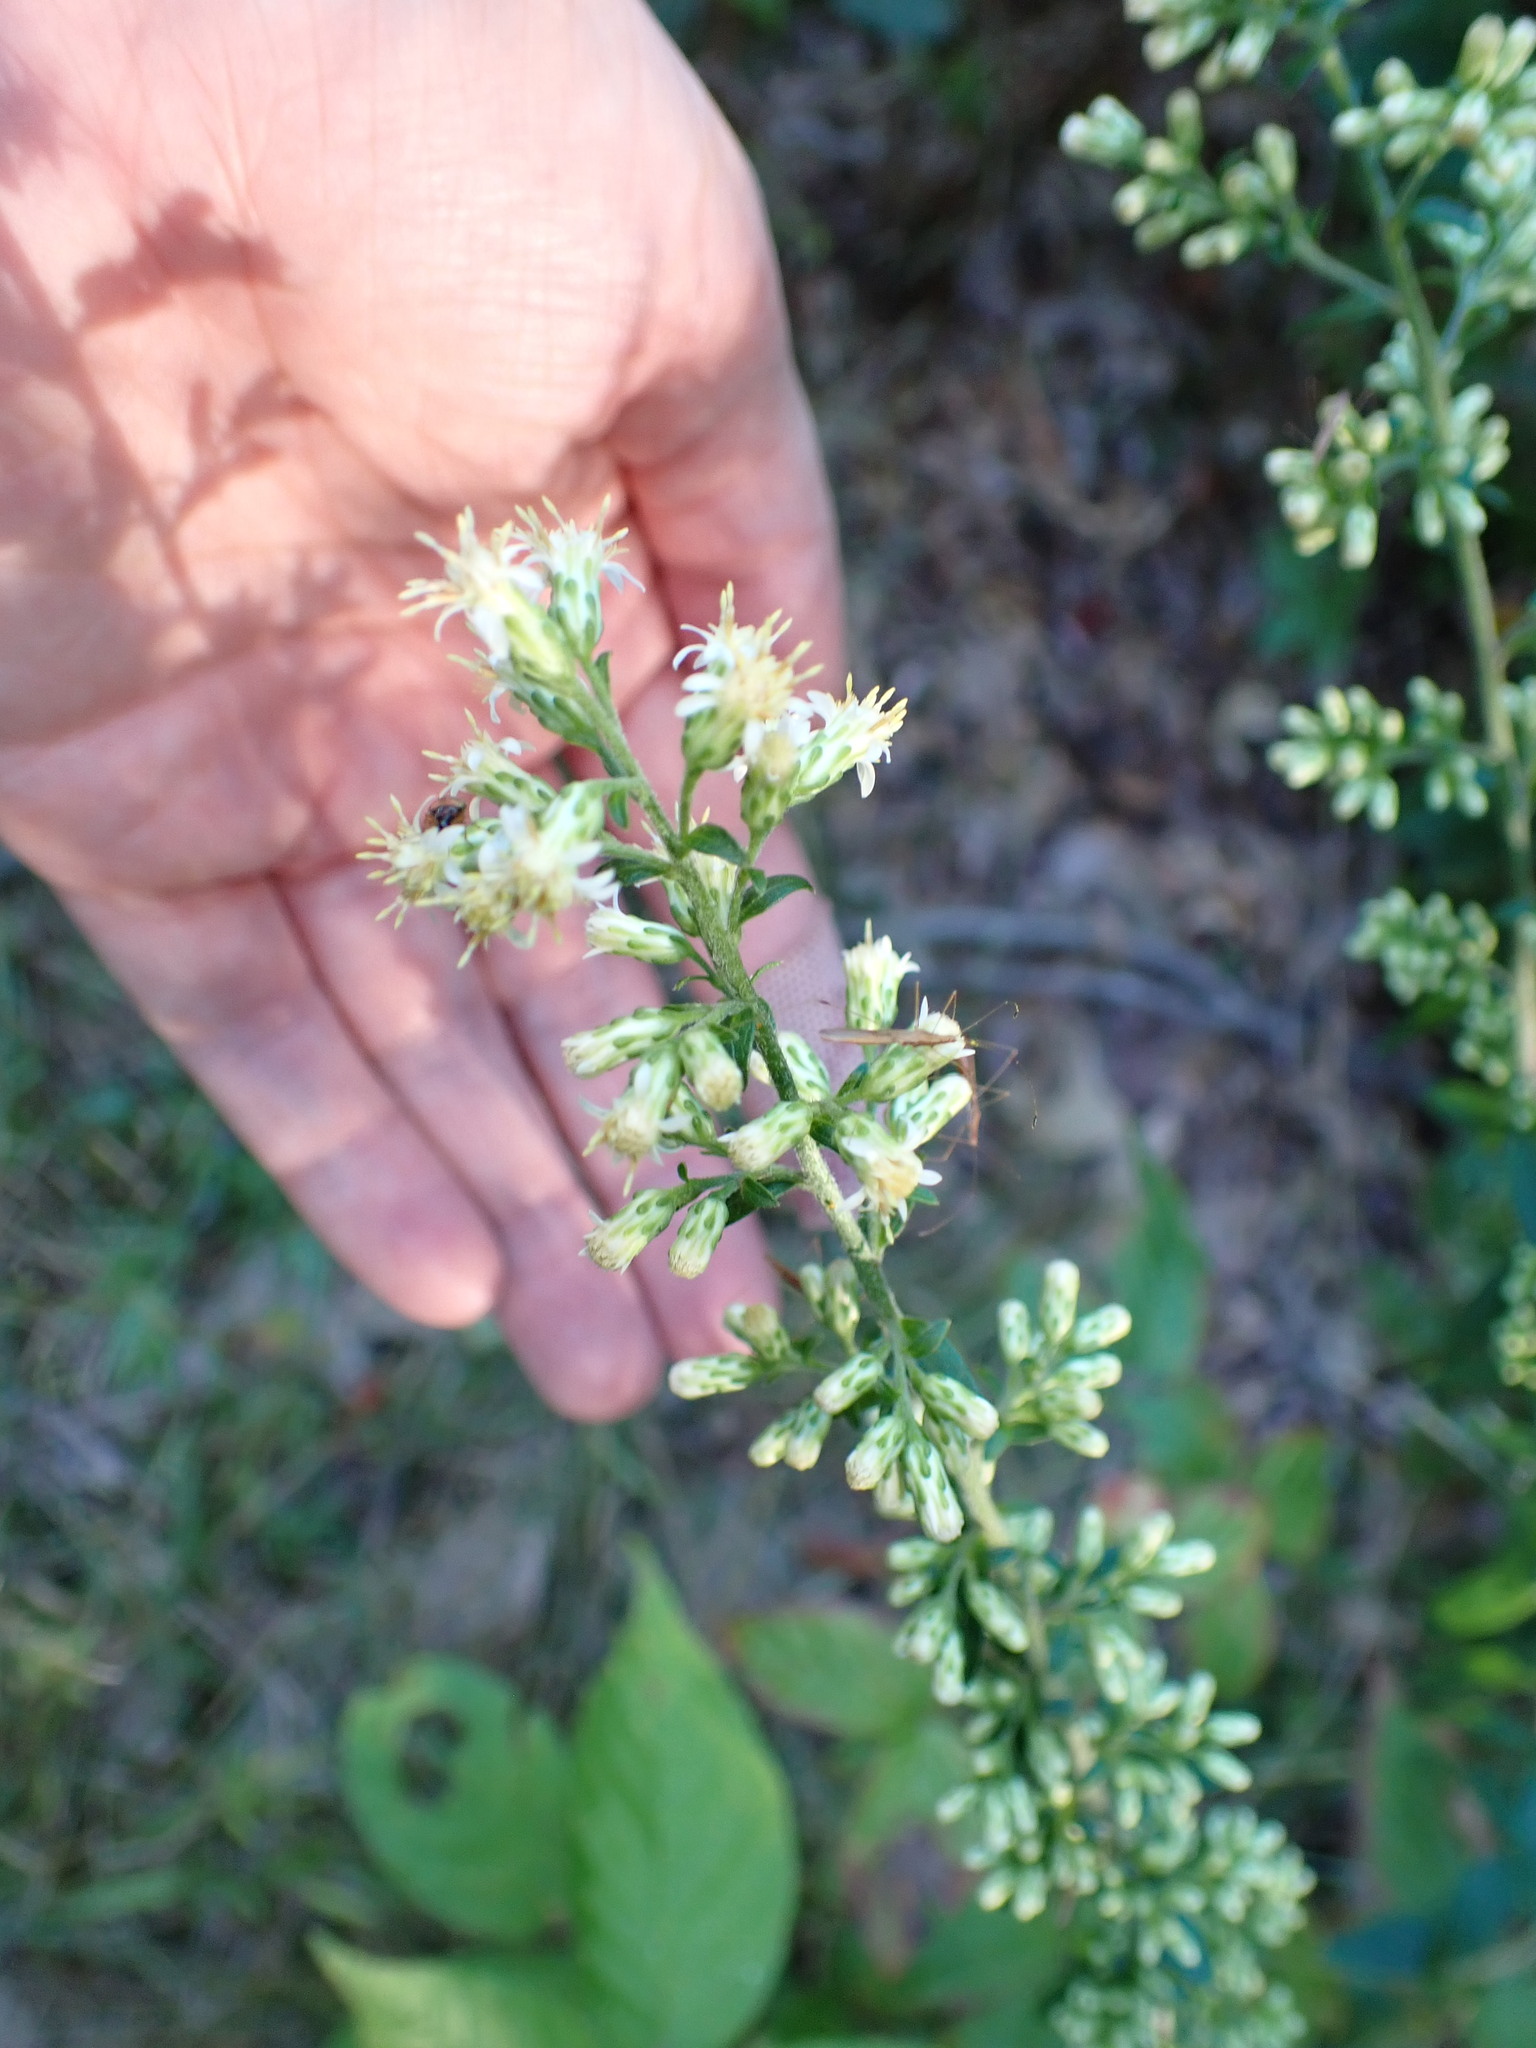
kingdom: Plantae
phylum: Tracheophyta
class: Magnoliopsida
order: Asterales
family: Asteraceae
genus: Solidago
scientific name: Solidago bicolor
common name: Silverrod
